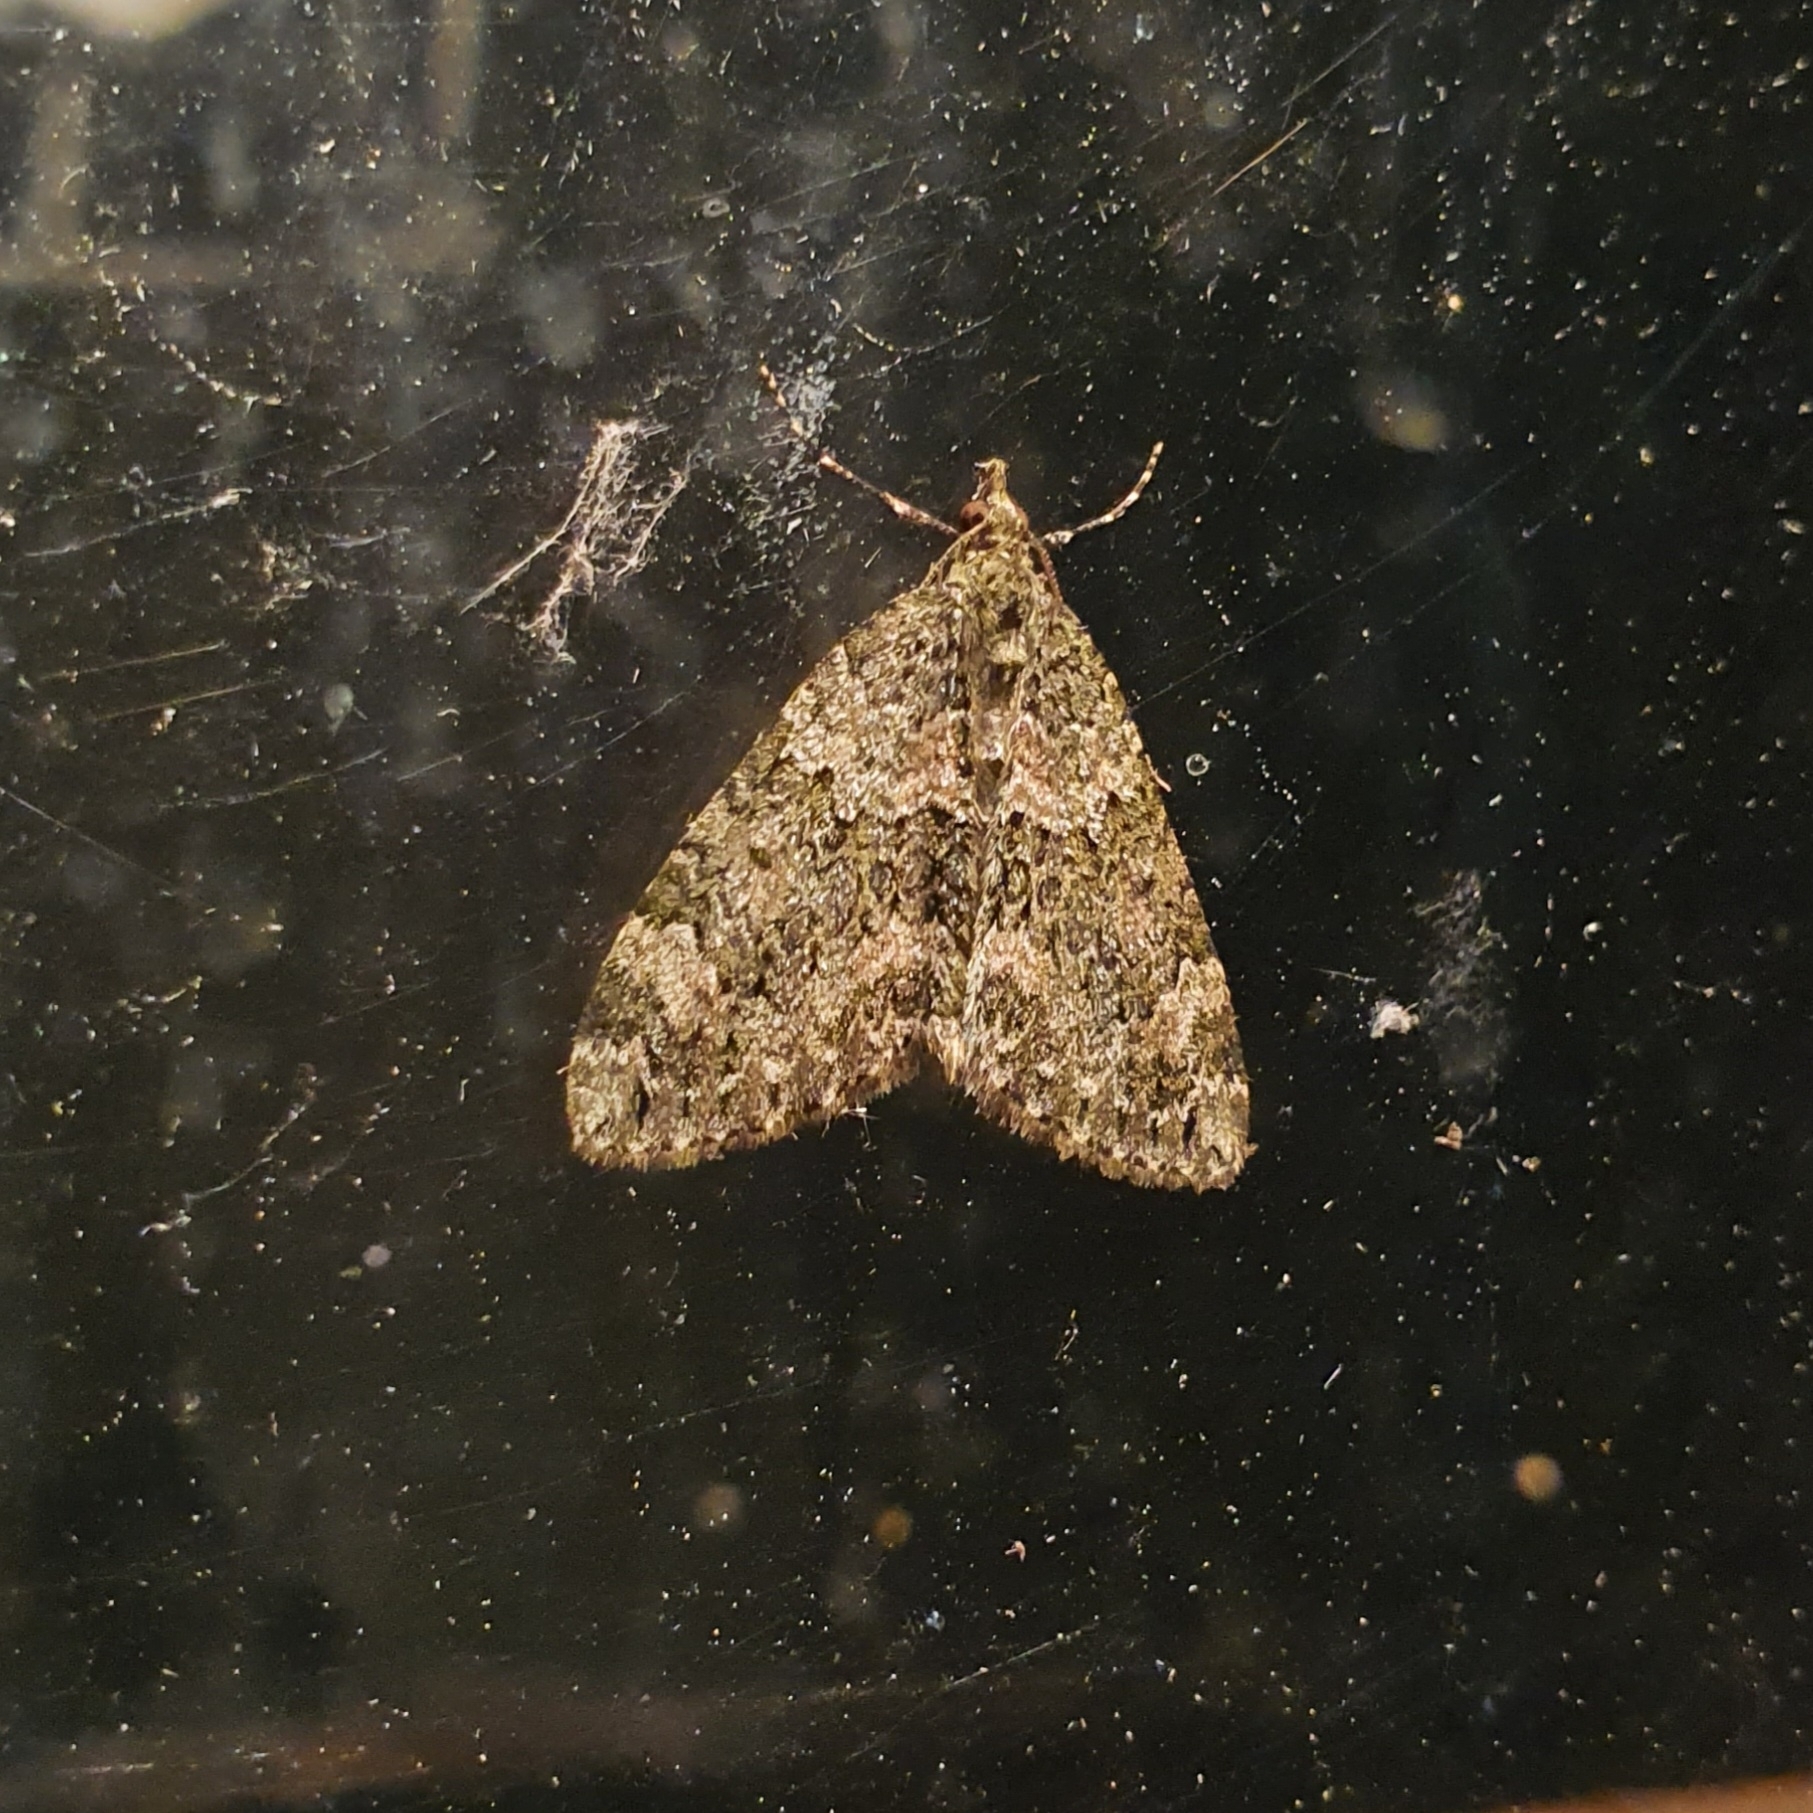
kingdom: Animalia
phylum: Arthropoda
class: Insecta
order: Lepidoptera
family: Geometridae
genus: Chloroclysta
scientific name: Chloroclysta miata
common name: Autumn green carpet
